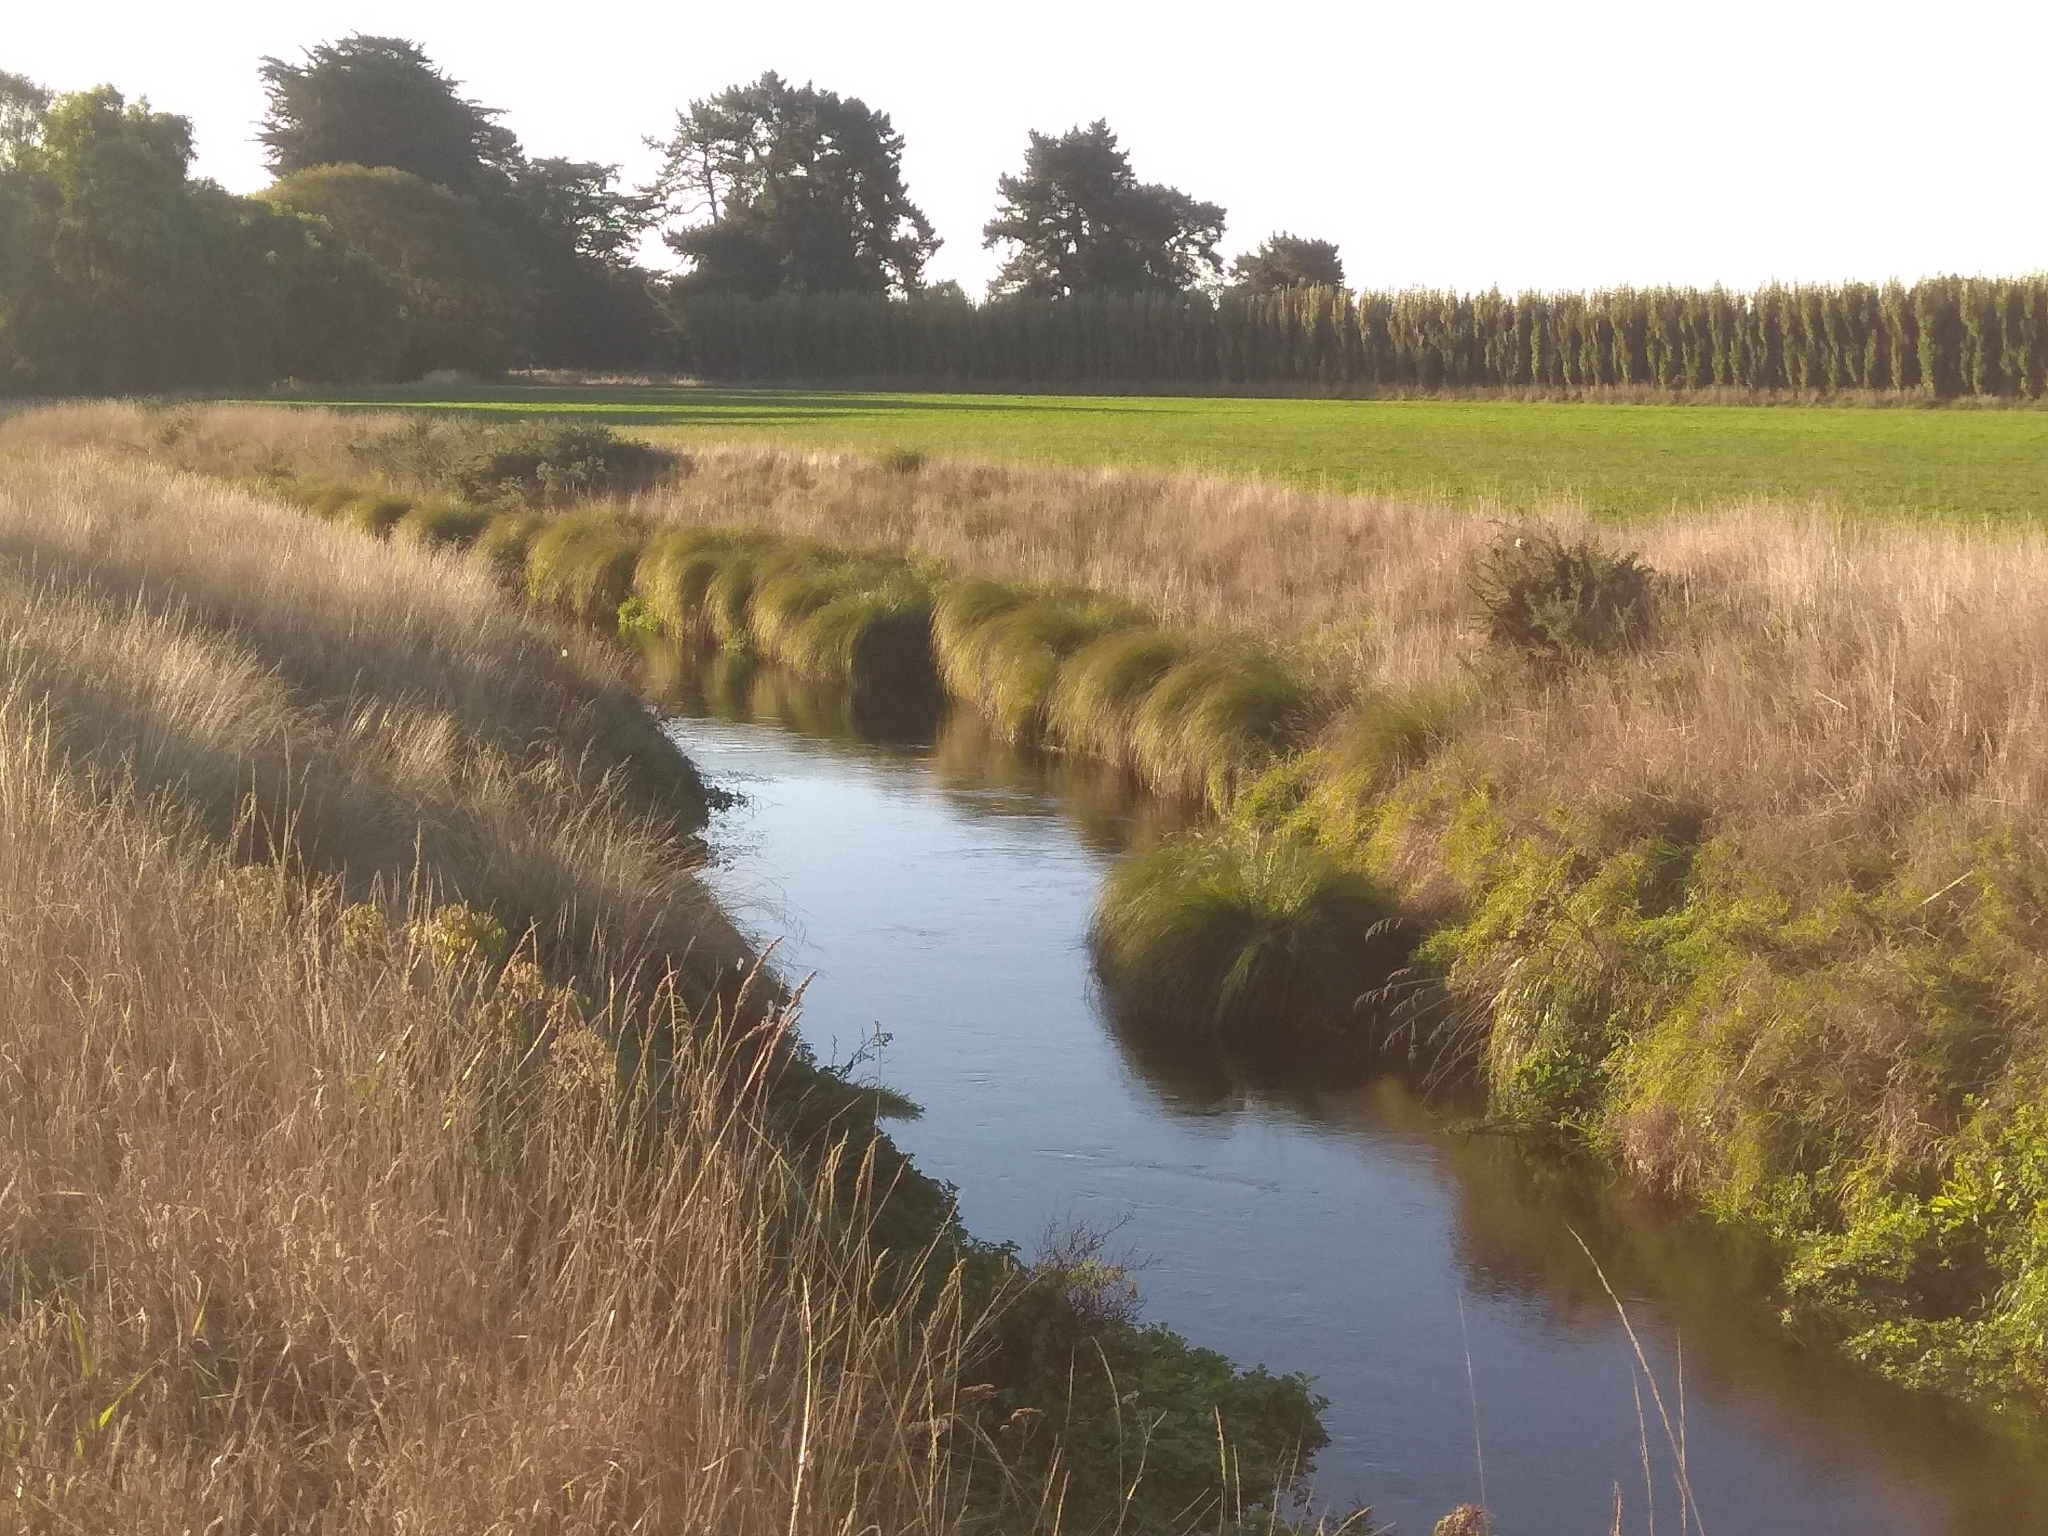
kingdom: Plantae
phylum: Tracheophyta
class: Liliopsida
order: Poales
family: Cyperaceae
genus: Carex
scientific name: Carex secta
